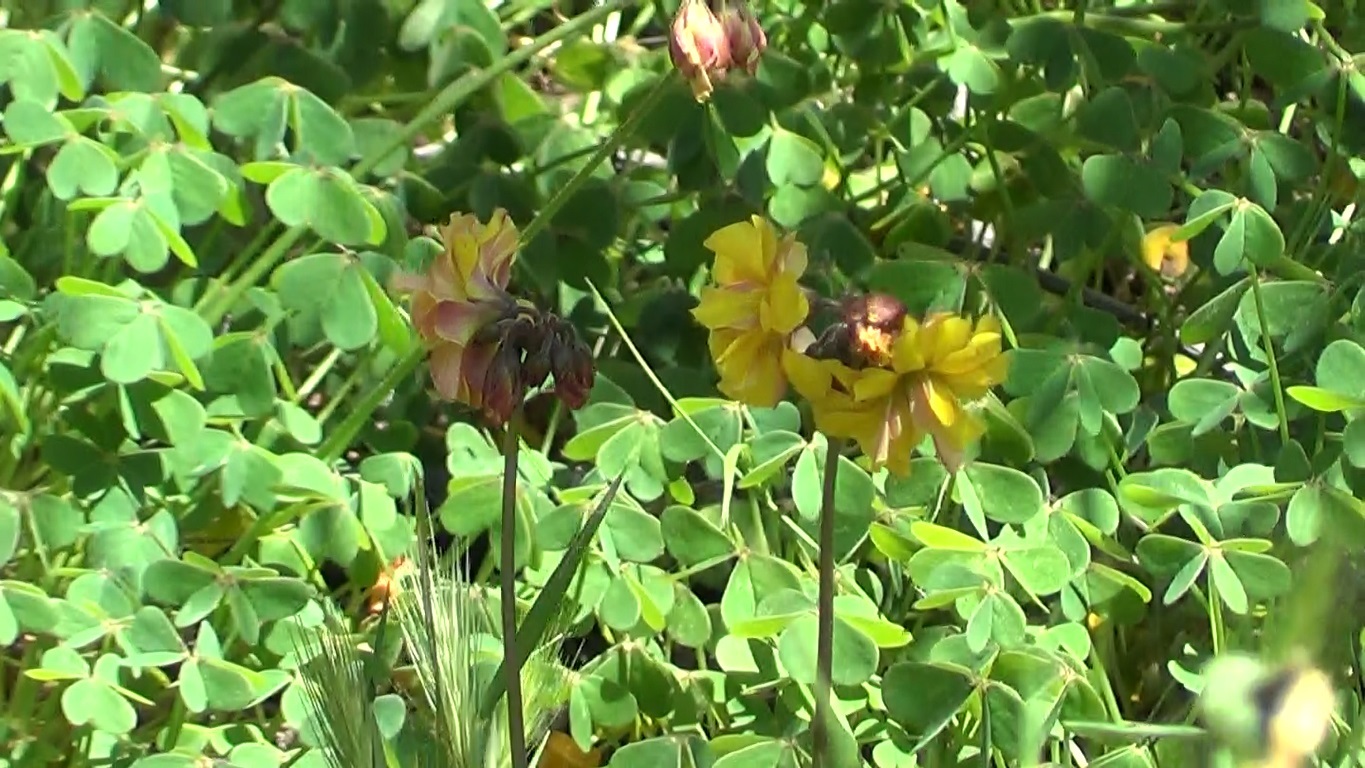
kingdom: Plantae
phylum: Tracheophyta
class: Magnoliopsida
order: Oxalidales
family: Oxalidaceae
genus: Oxalis
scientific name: Oxalis pes-caprae
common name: Bermuda-buttercup
